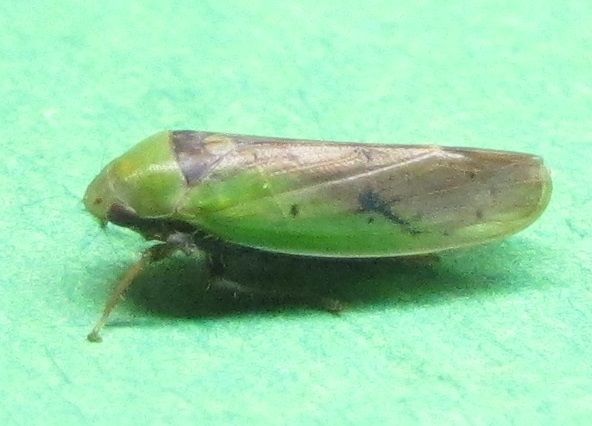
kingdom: Animalia
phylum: Arthropoda
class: Insecta
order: Hemiptera
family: Cicadellidae
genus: Ponana
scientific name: Ponana pectoralis
